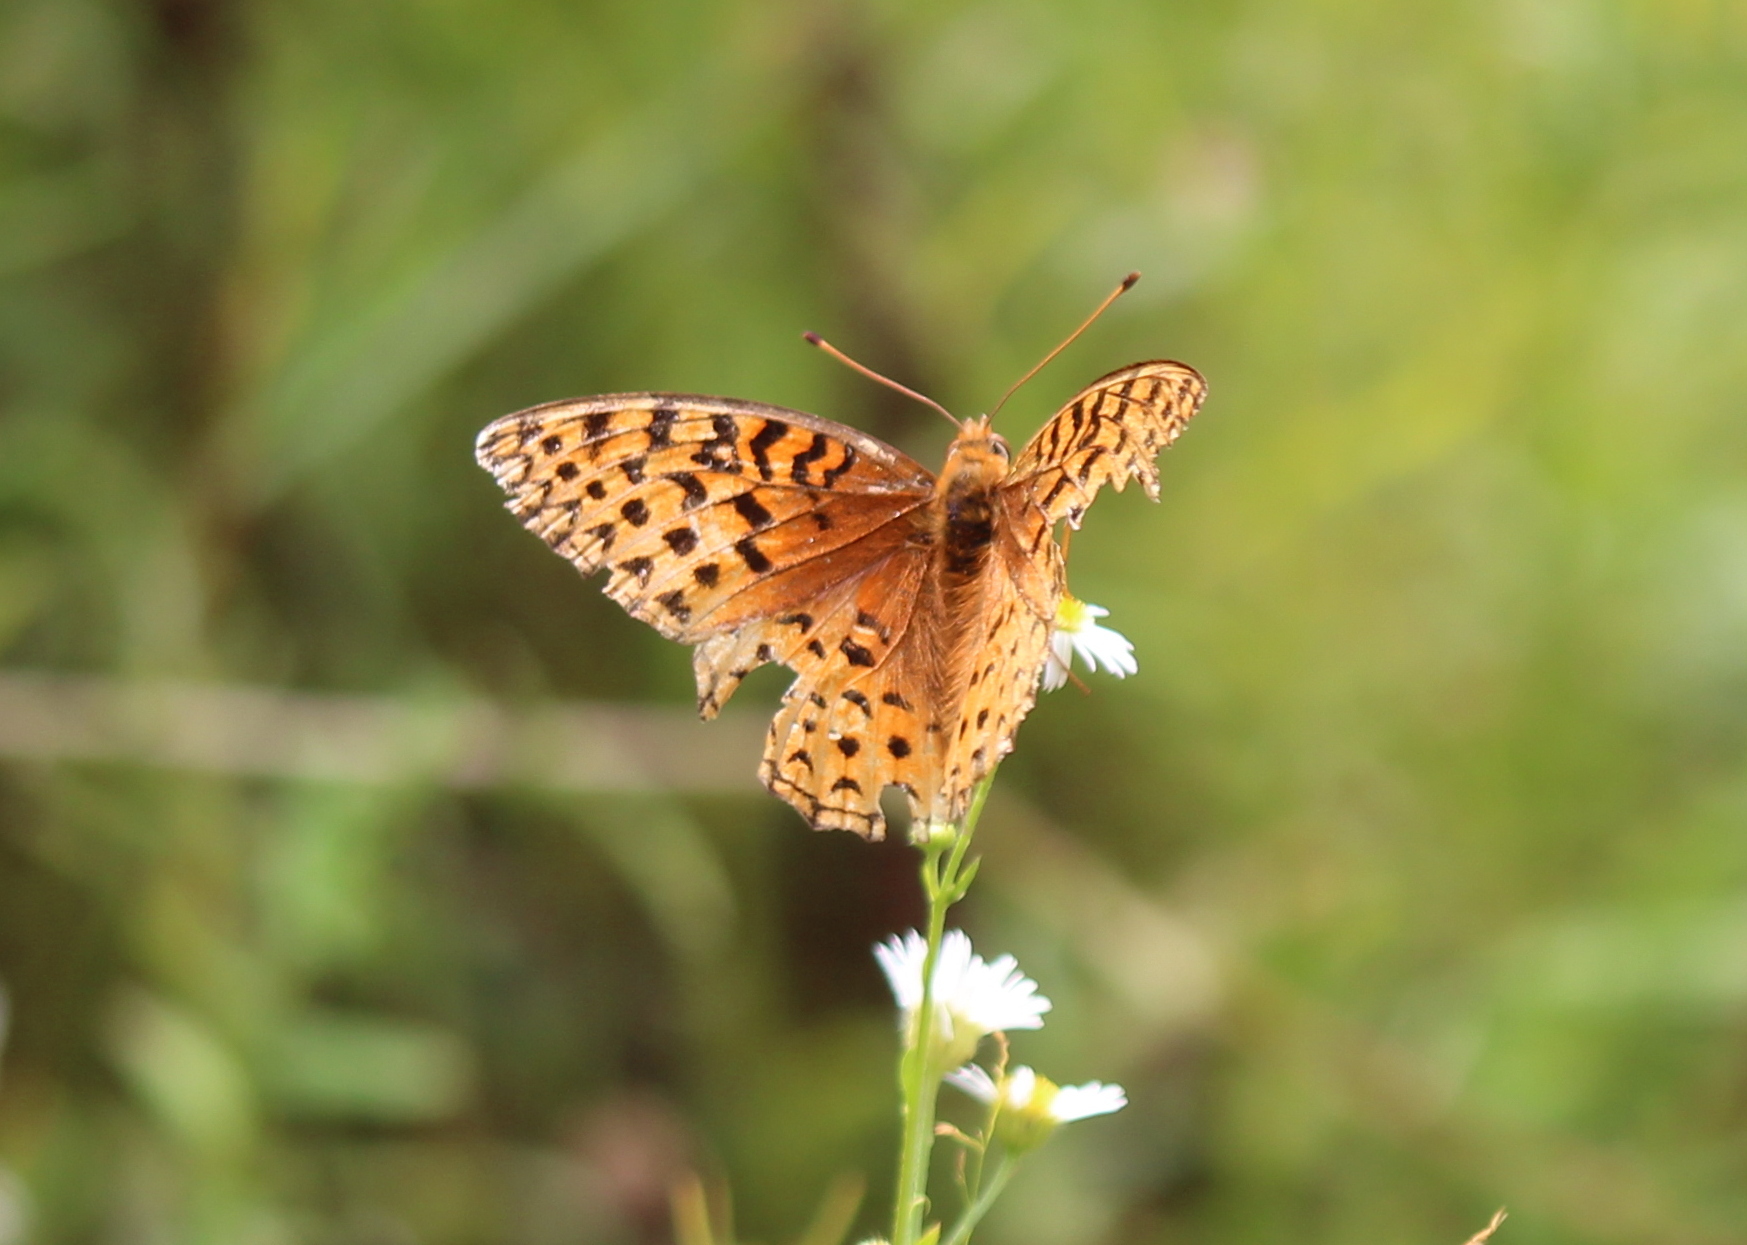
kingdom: Animalia
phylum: Arthropoda
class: Insecta
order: Lepidoptera
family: Nymphalidae
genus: Speyeria
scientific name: Speyeria aphrodite
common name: Aphrodite friitllary
